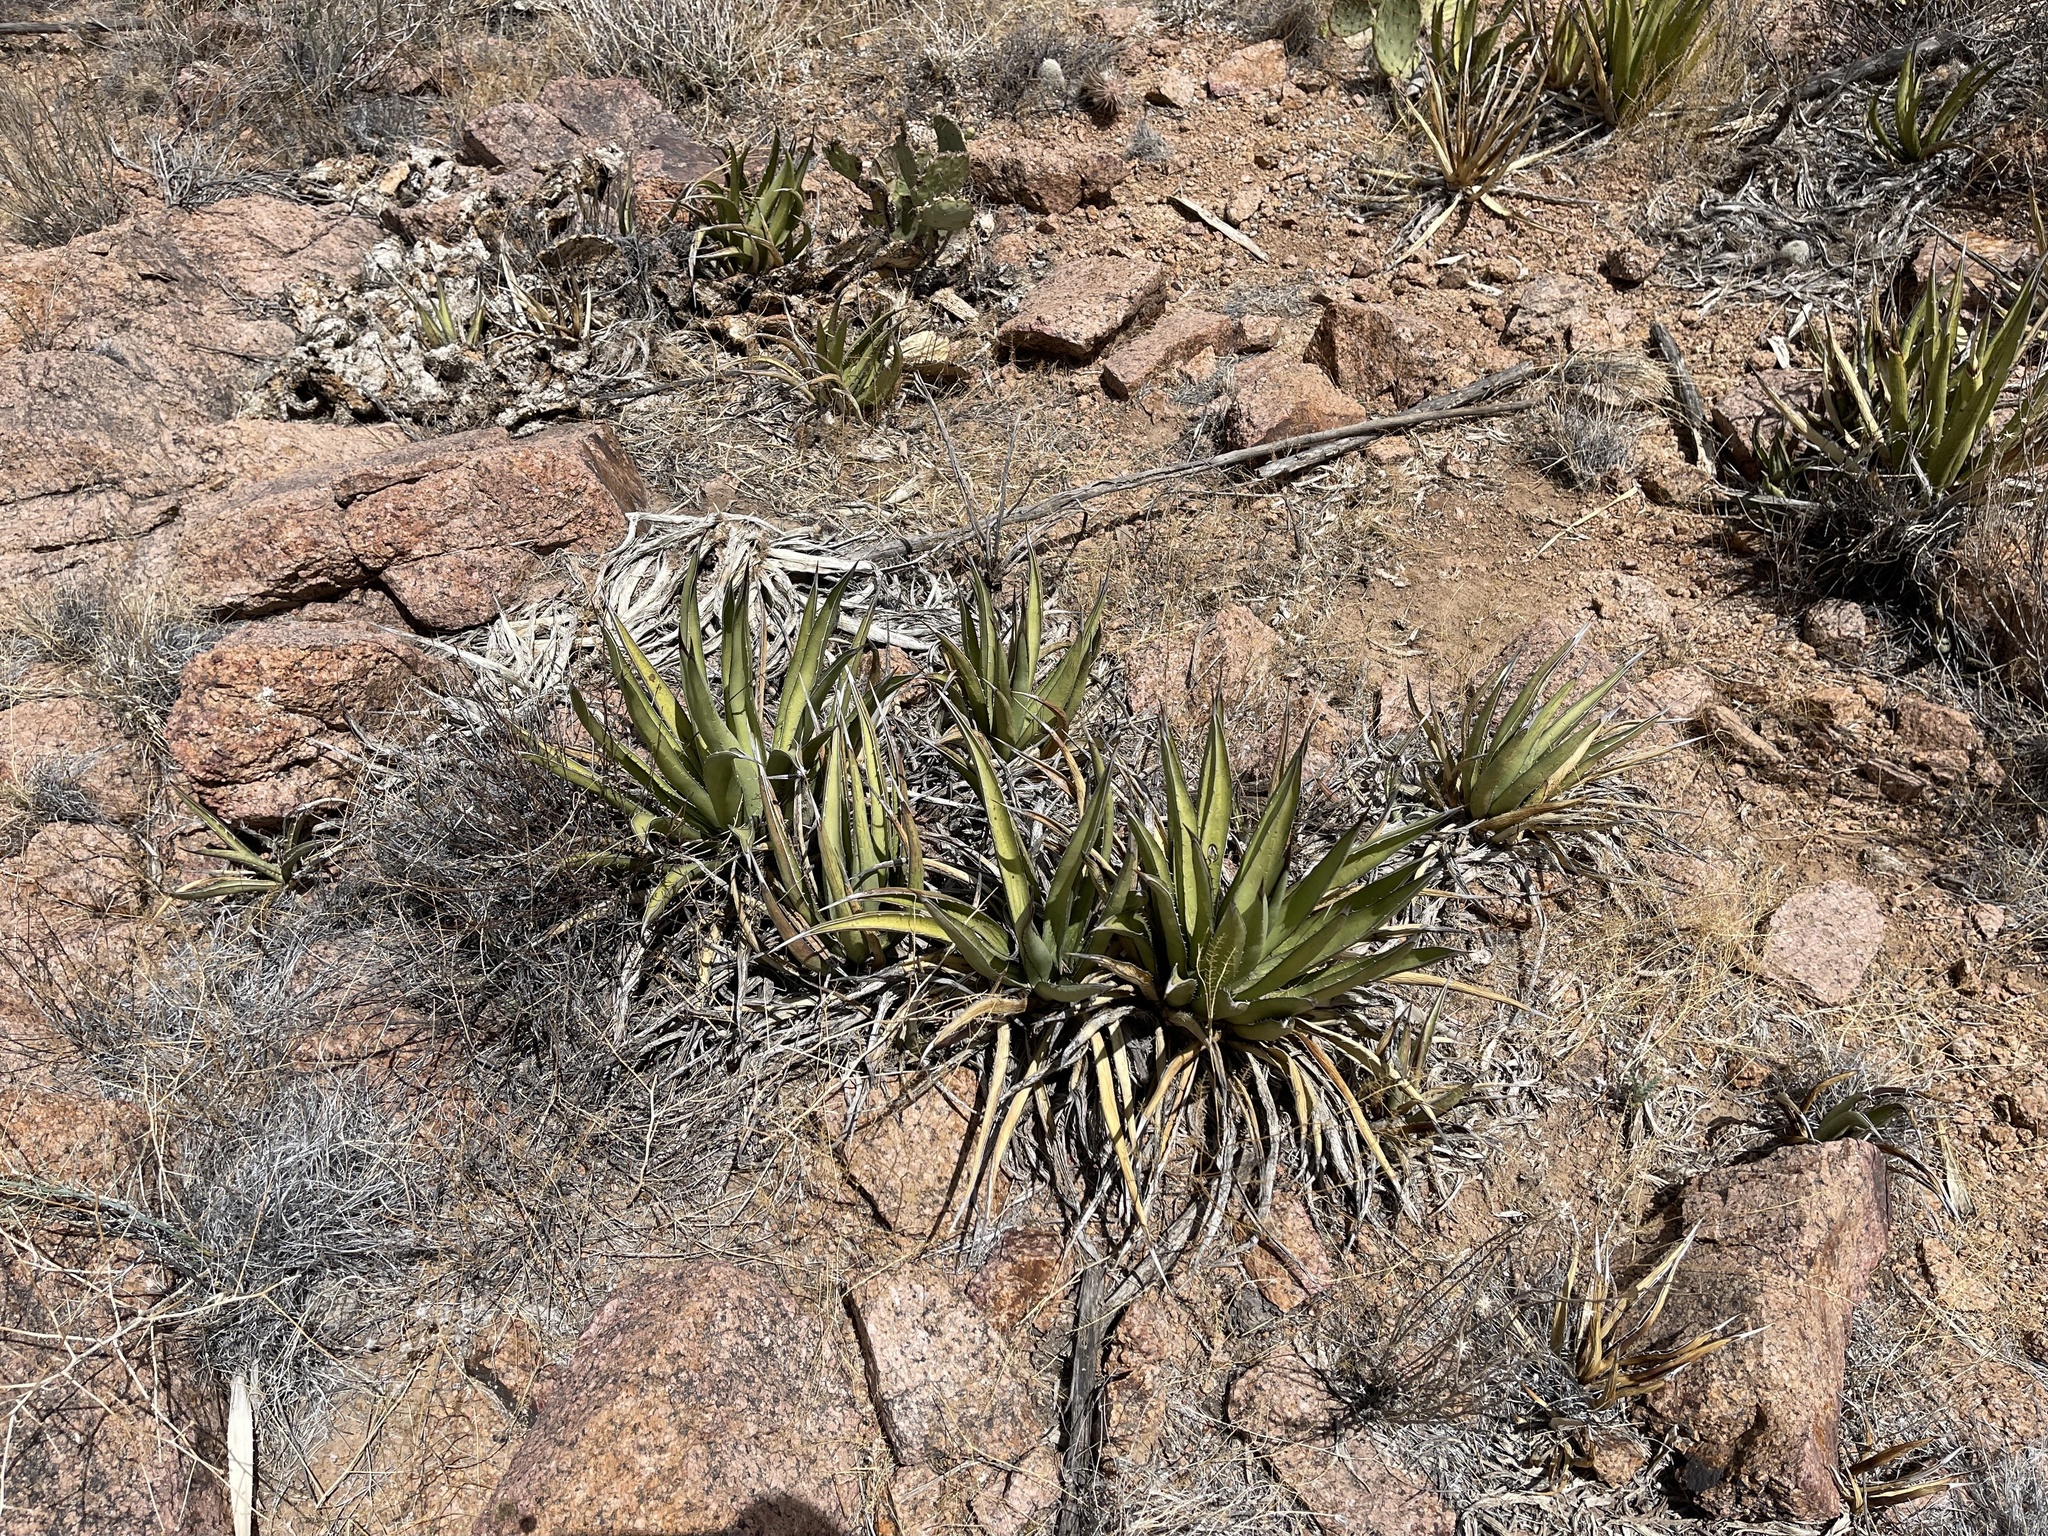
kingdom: Plantae
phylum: Tracheophyta
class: Liliopsida
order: Asparagales
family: Asparagaceae
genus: Agave
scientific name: Agave lechuguilla
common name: Lecheguilla agave
